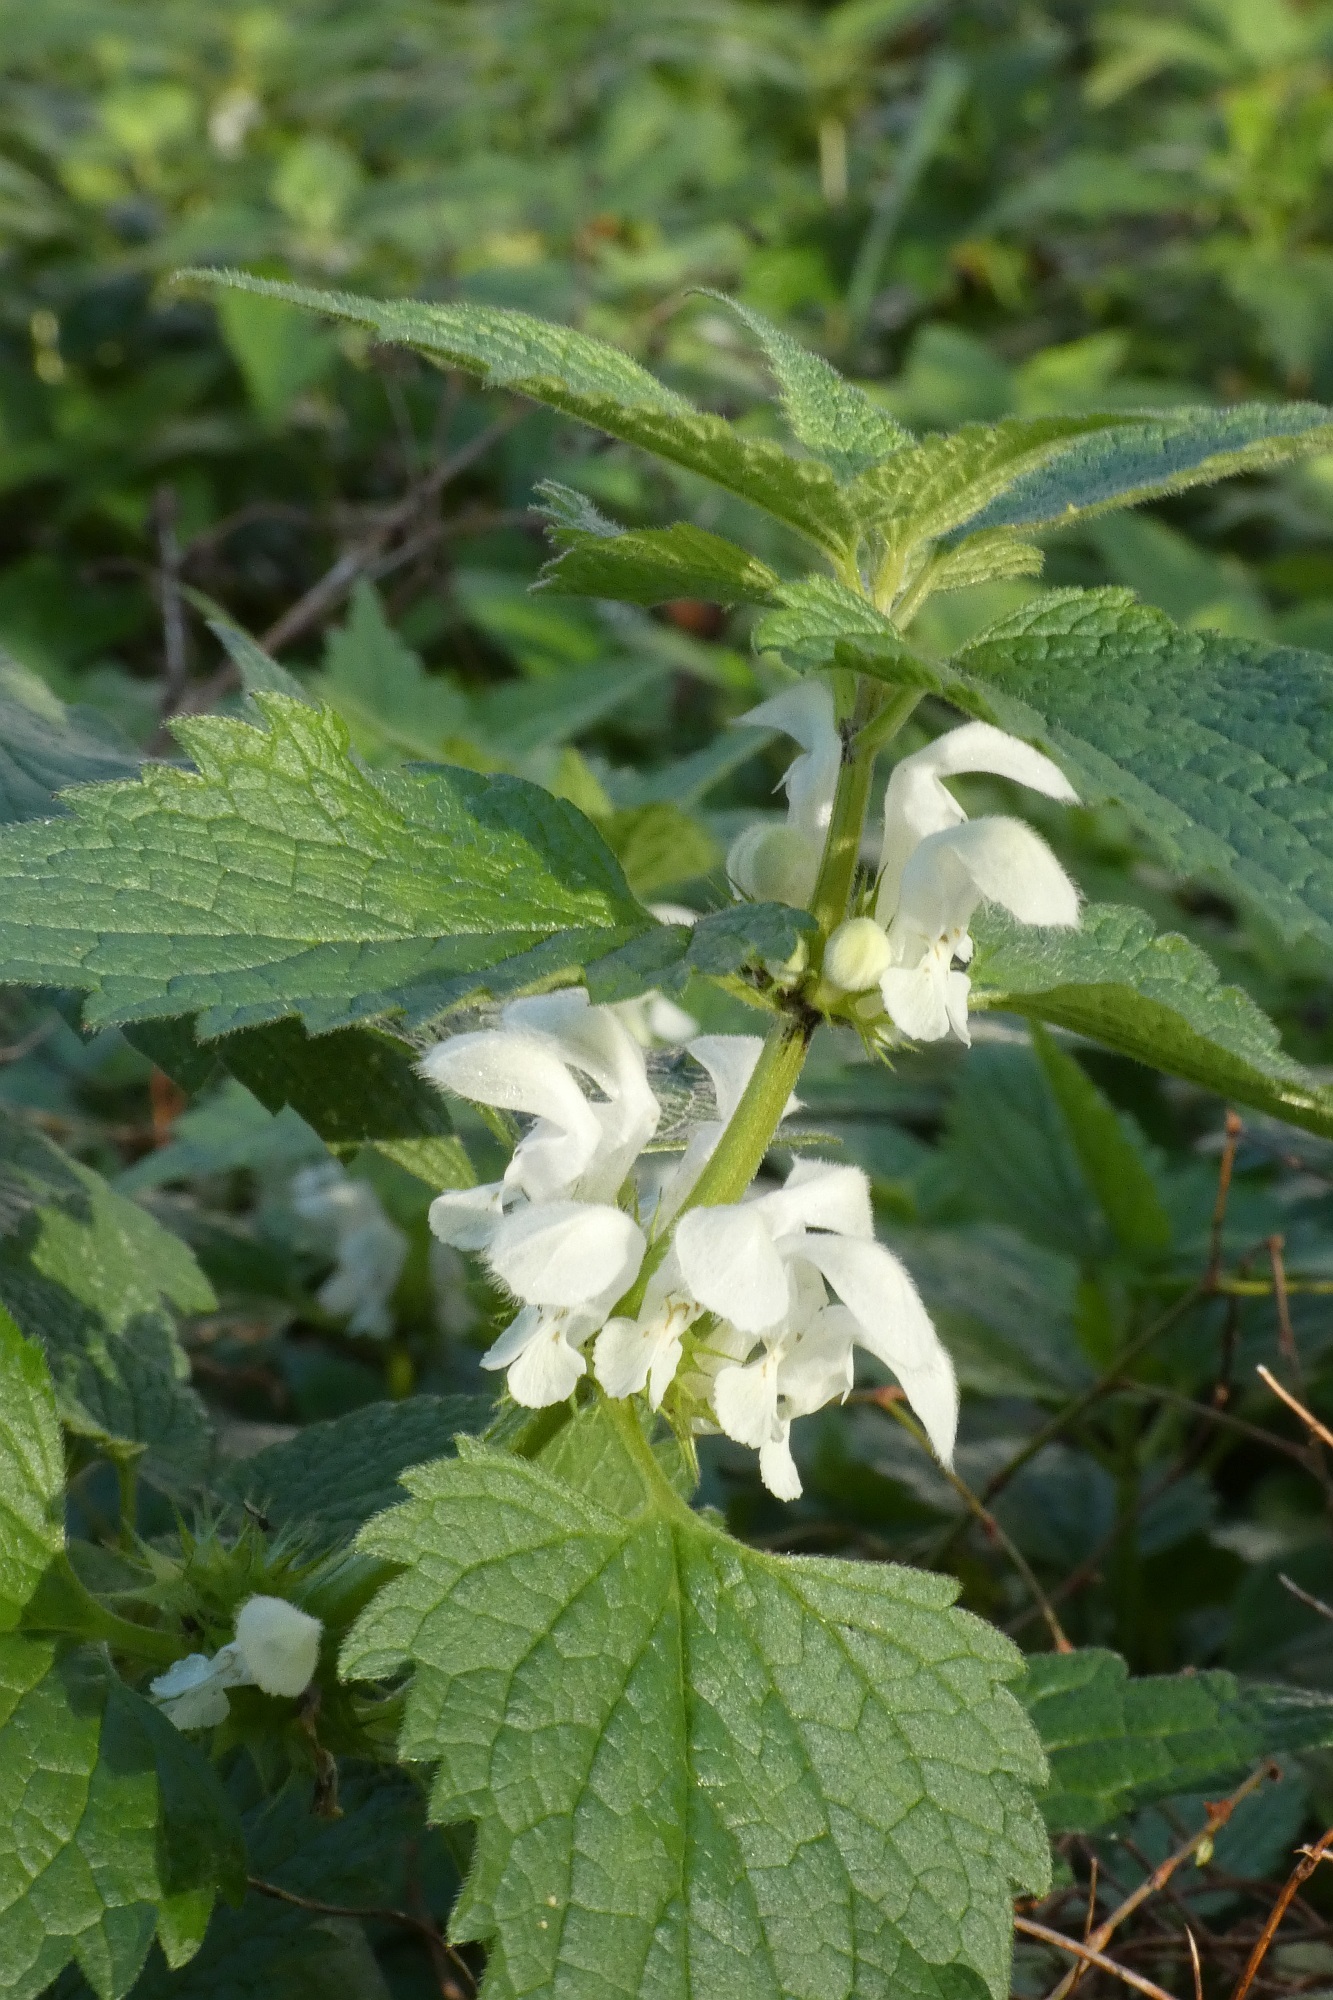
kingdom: Plantae
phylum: Tracheophyta
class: Magnoliopsida
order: Lamiales
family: Lamiaceae
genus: Lamium
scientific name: Lamium album
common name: White dead-nettle
